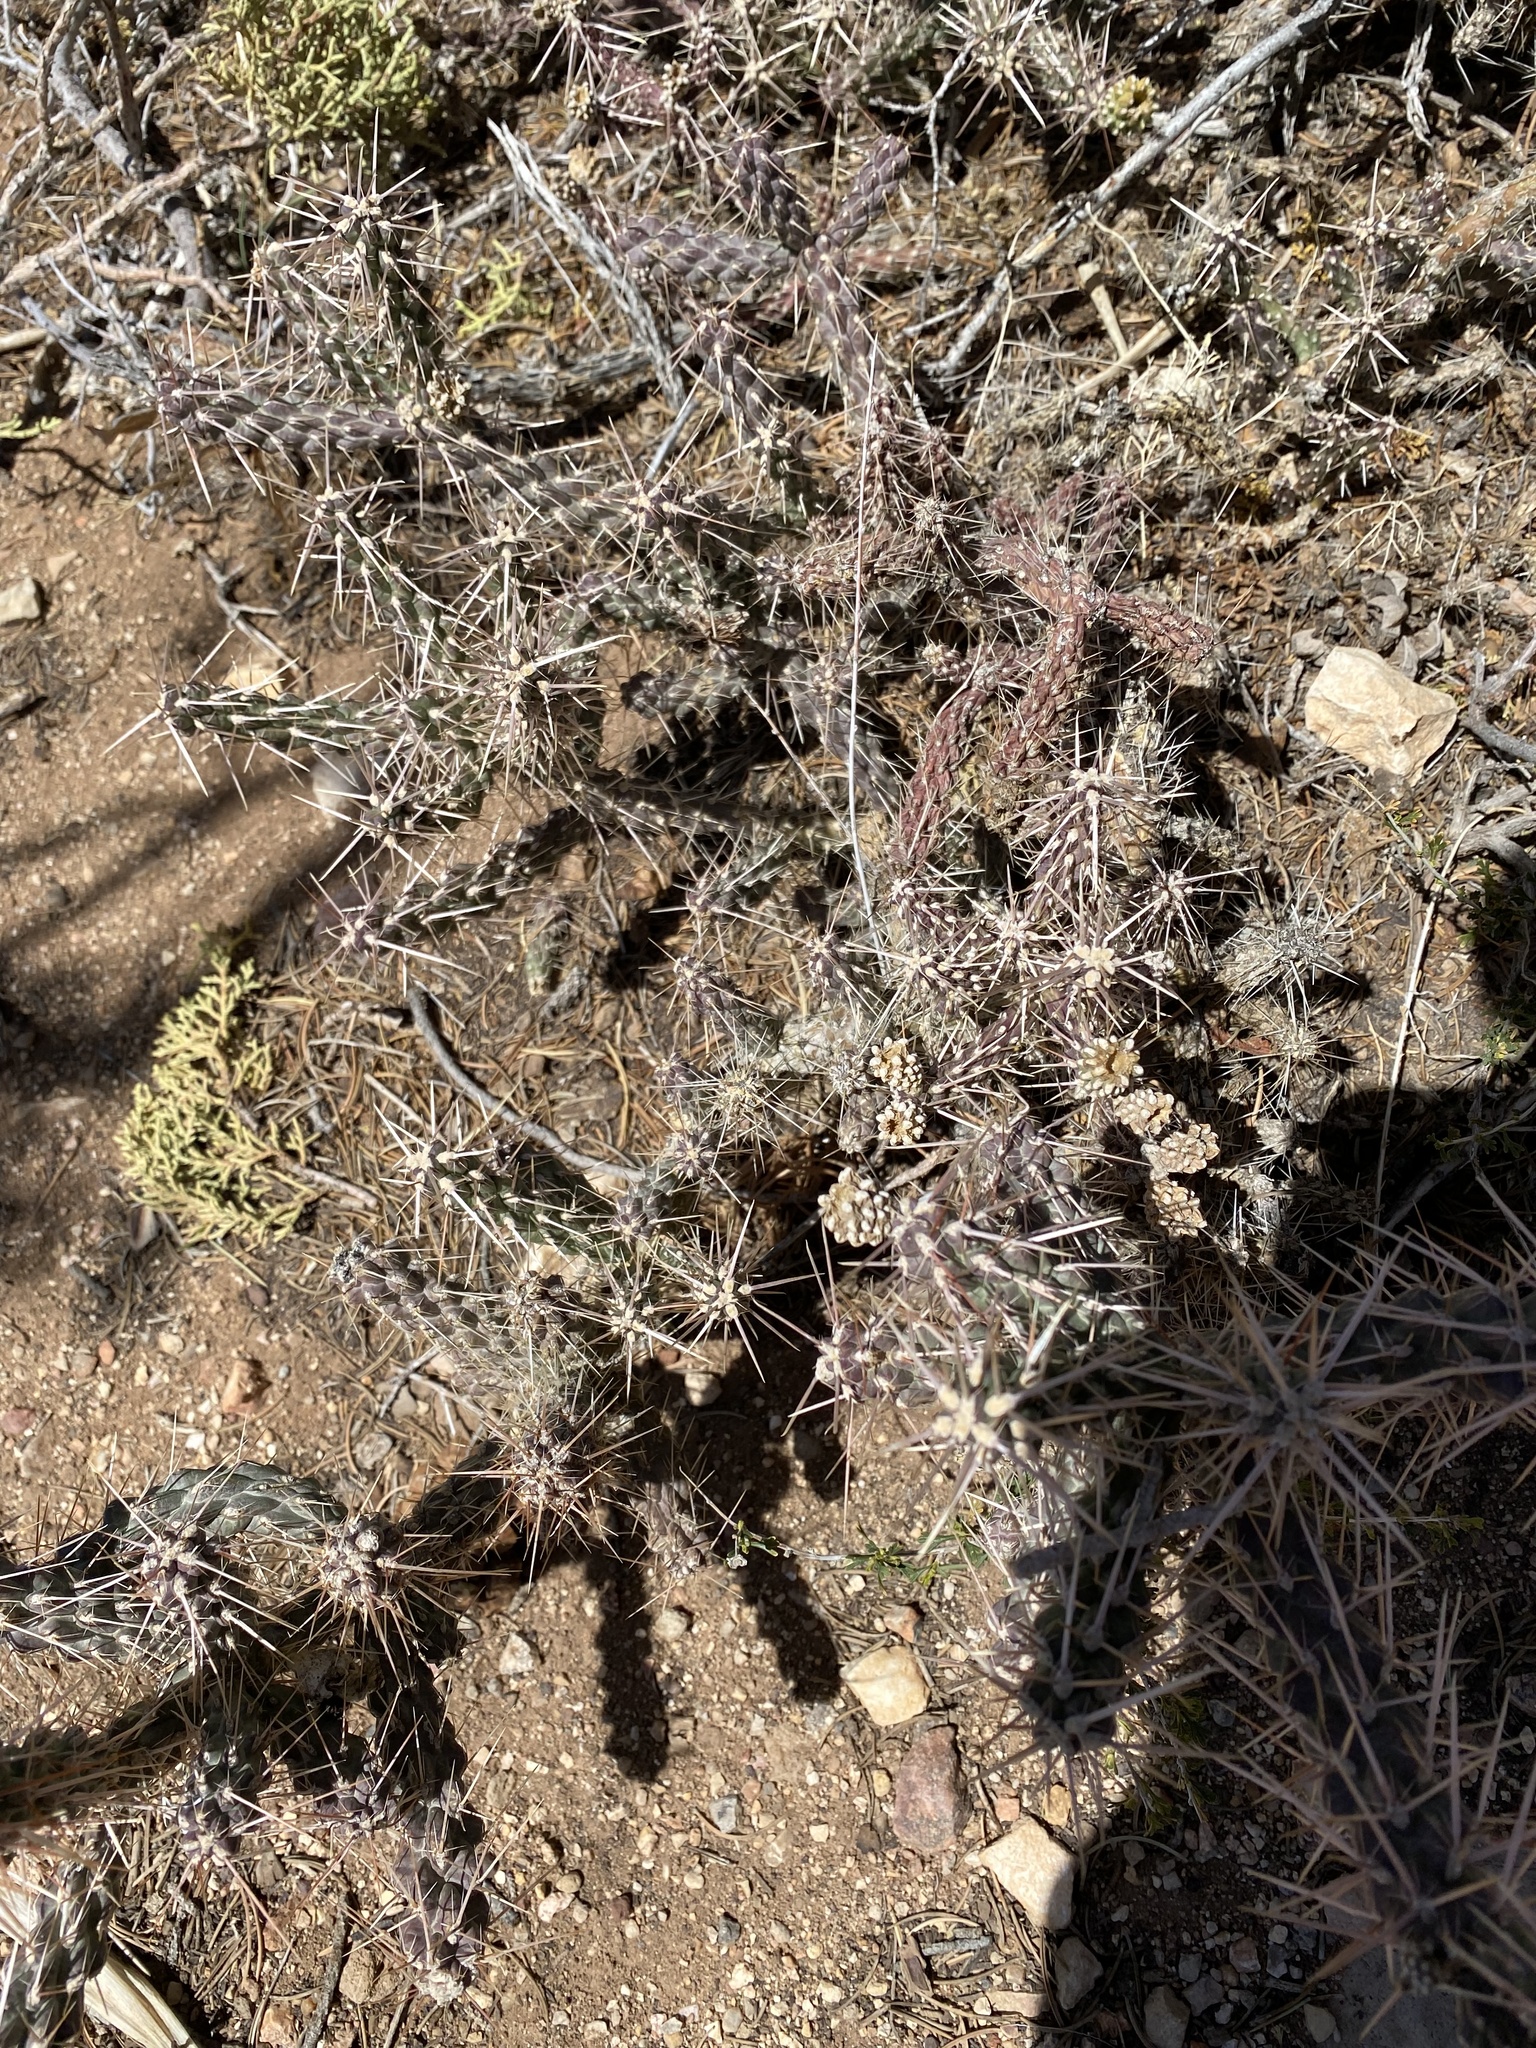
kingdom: Plantae
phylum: Tracheophyta
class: Magnoliopsida
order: Caryophyllales
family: Cactaceae
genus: Cylindropuntia
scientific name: Cylindropuntia whipplei
